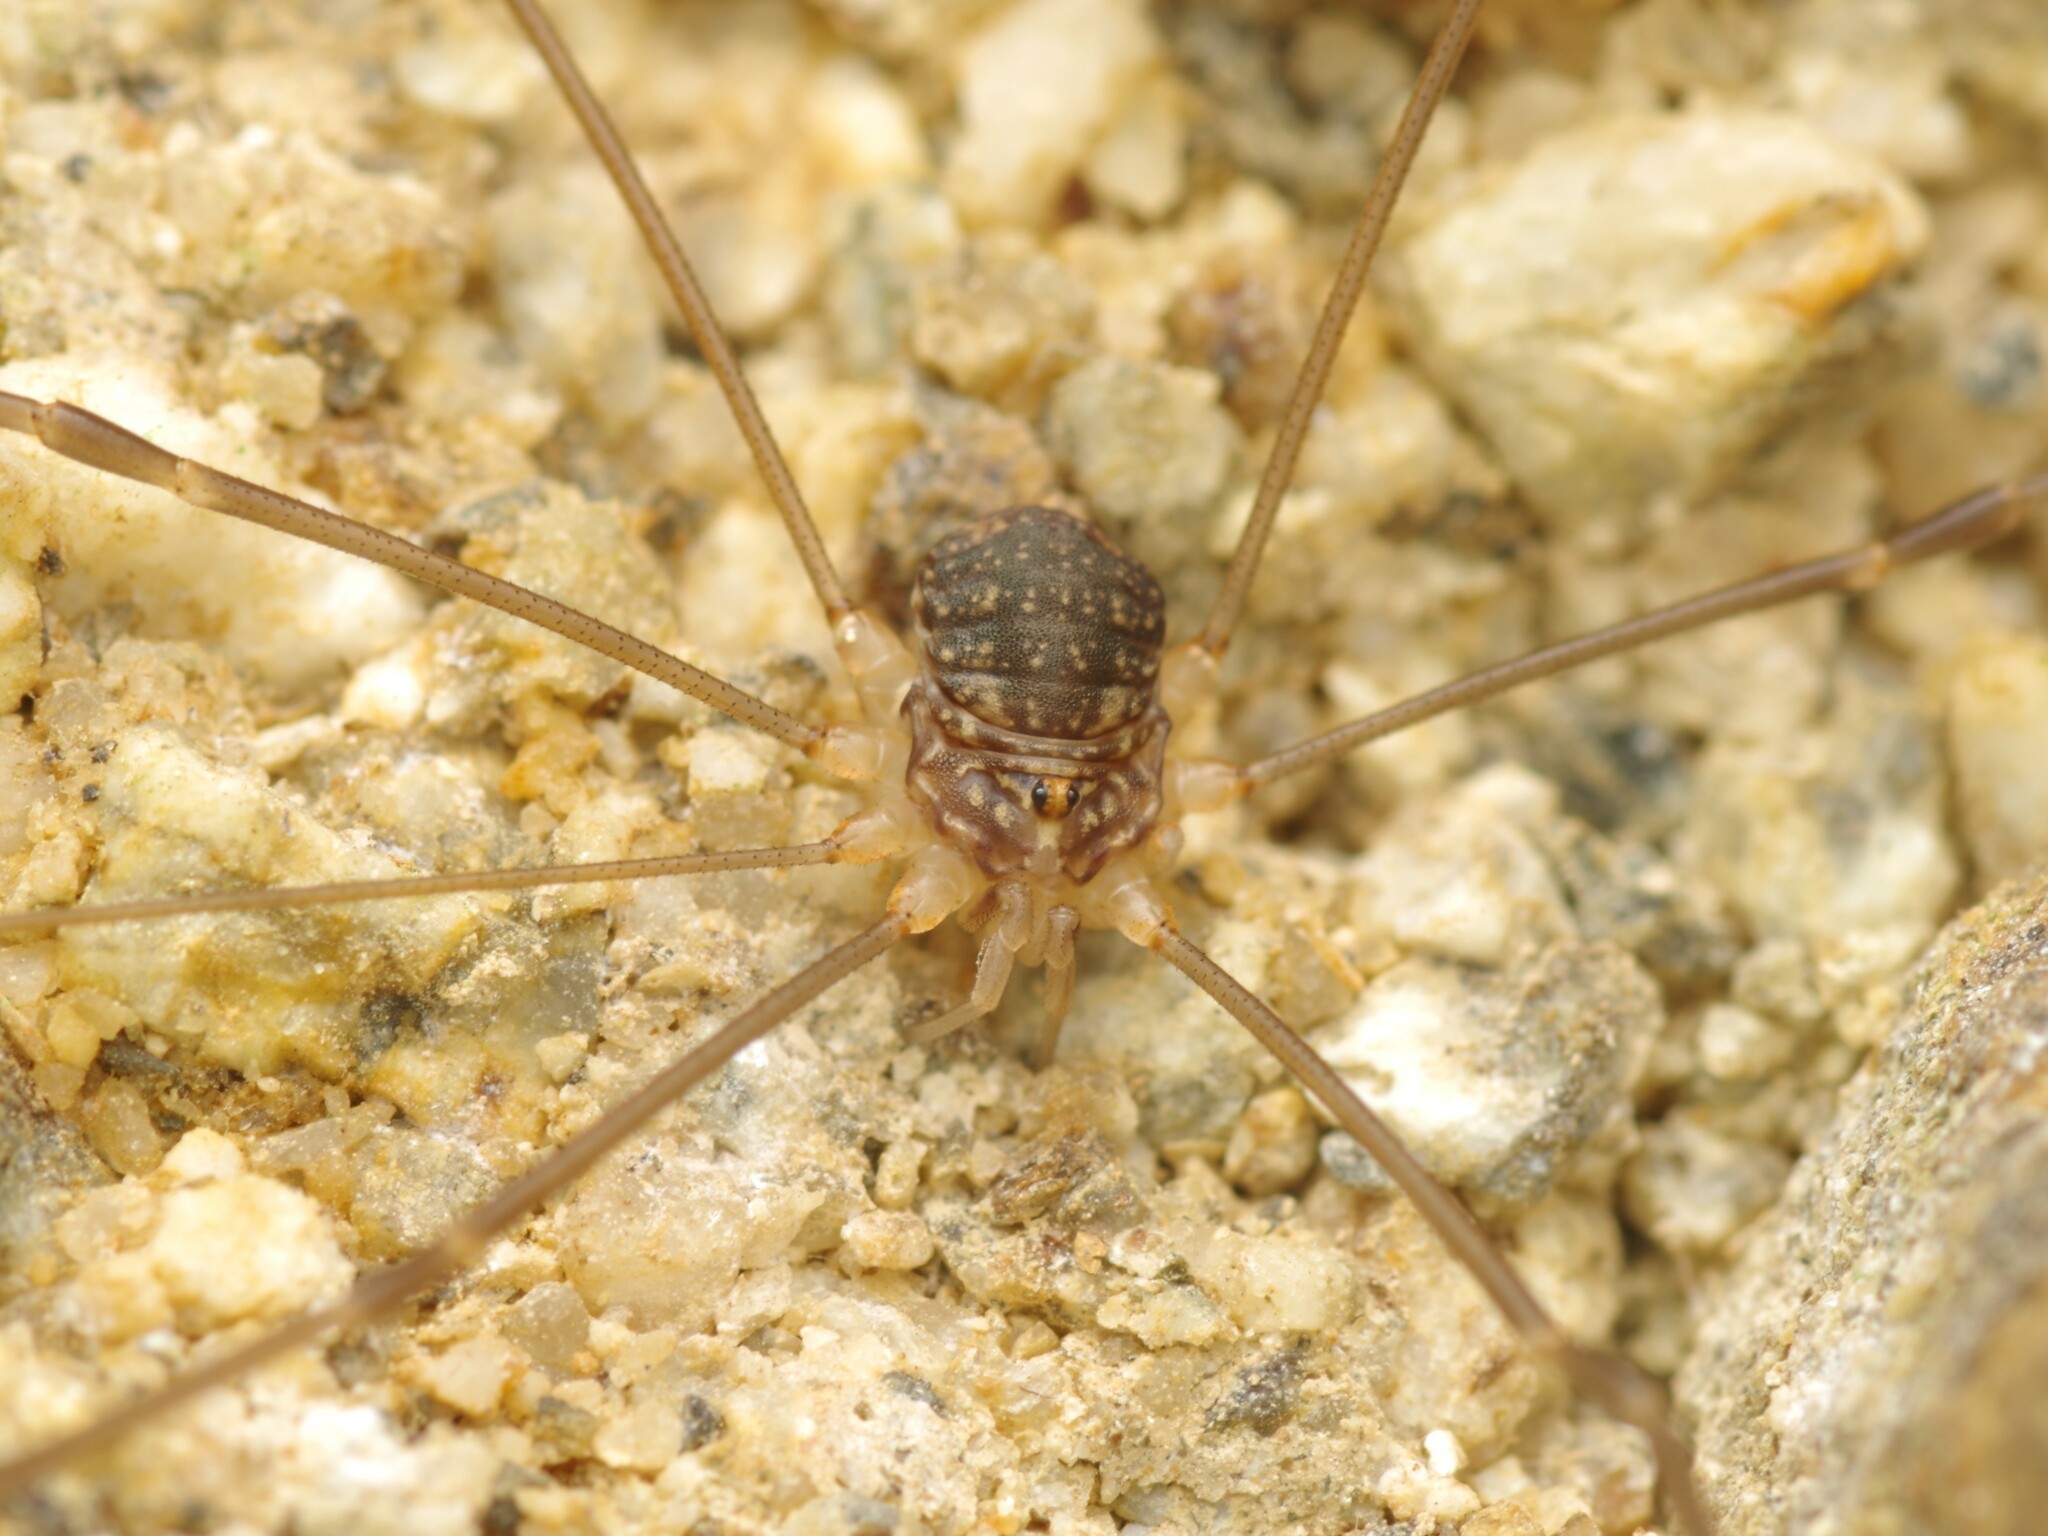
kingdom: Animalia
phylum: Arthropoda
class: Arachnida
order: Opiliones
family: Sclerosomatidae
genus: Nelima
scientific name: Nelima gothica
